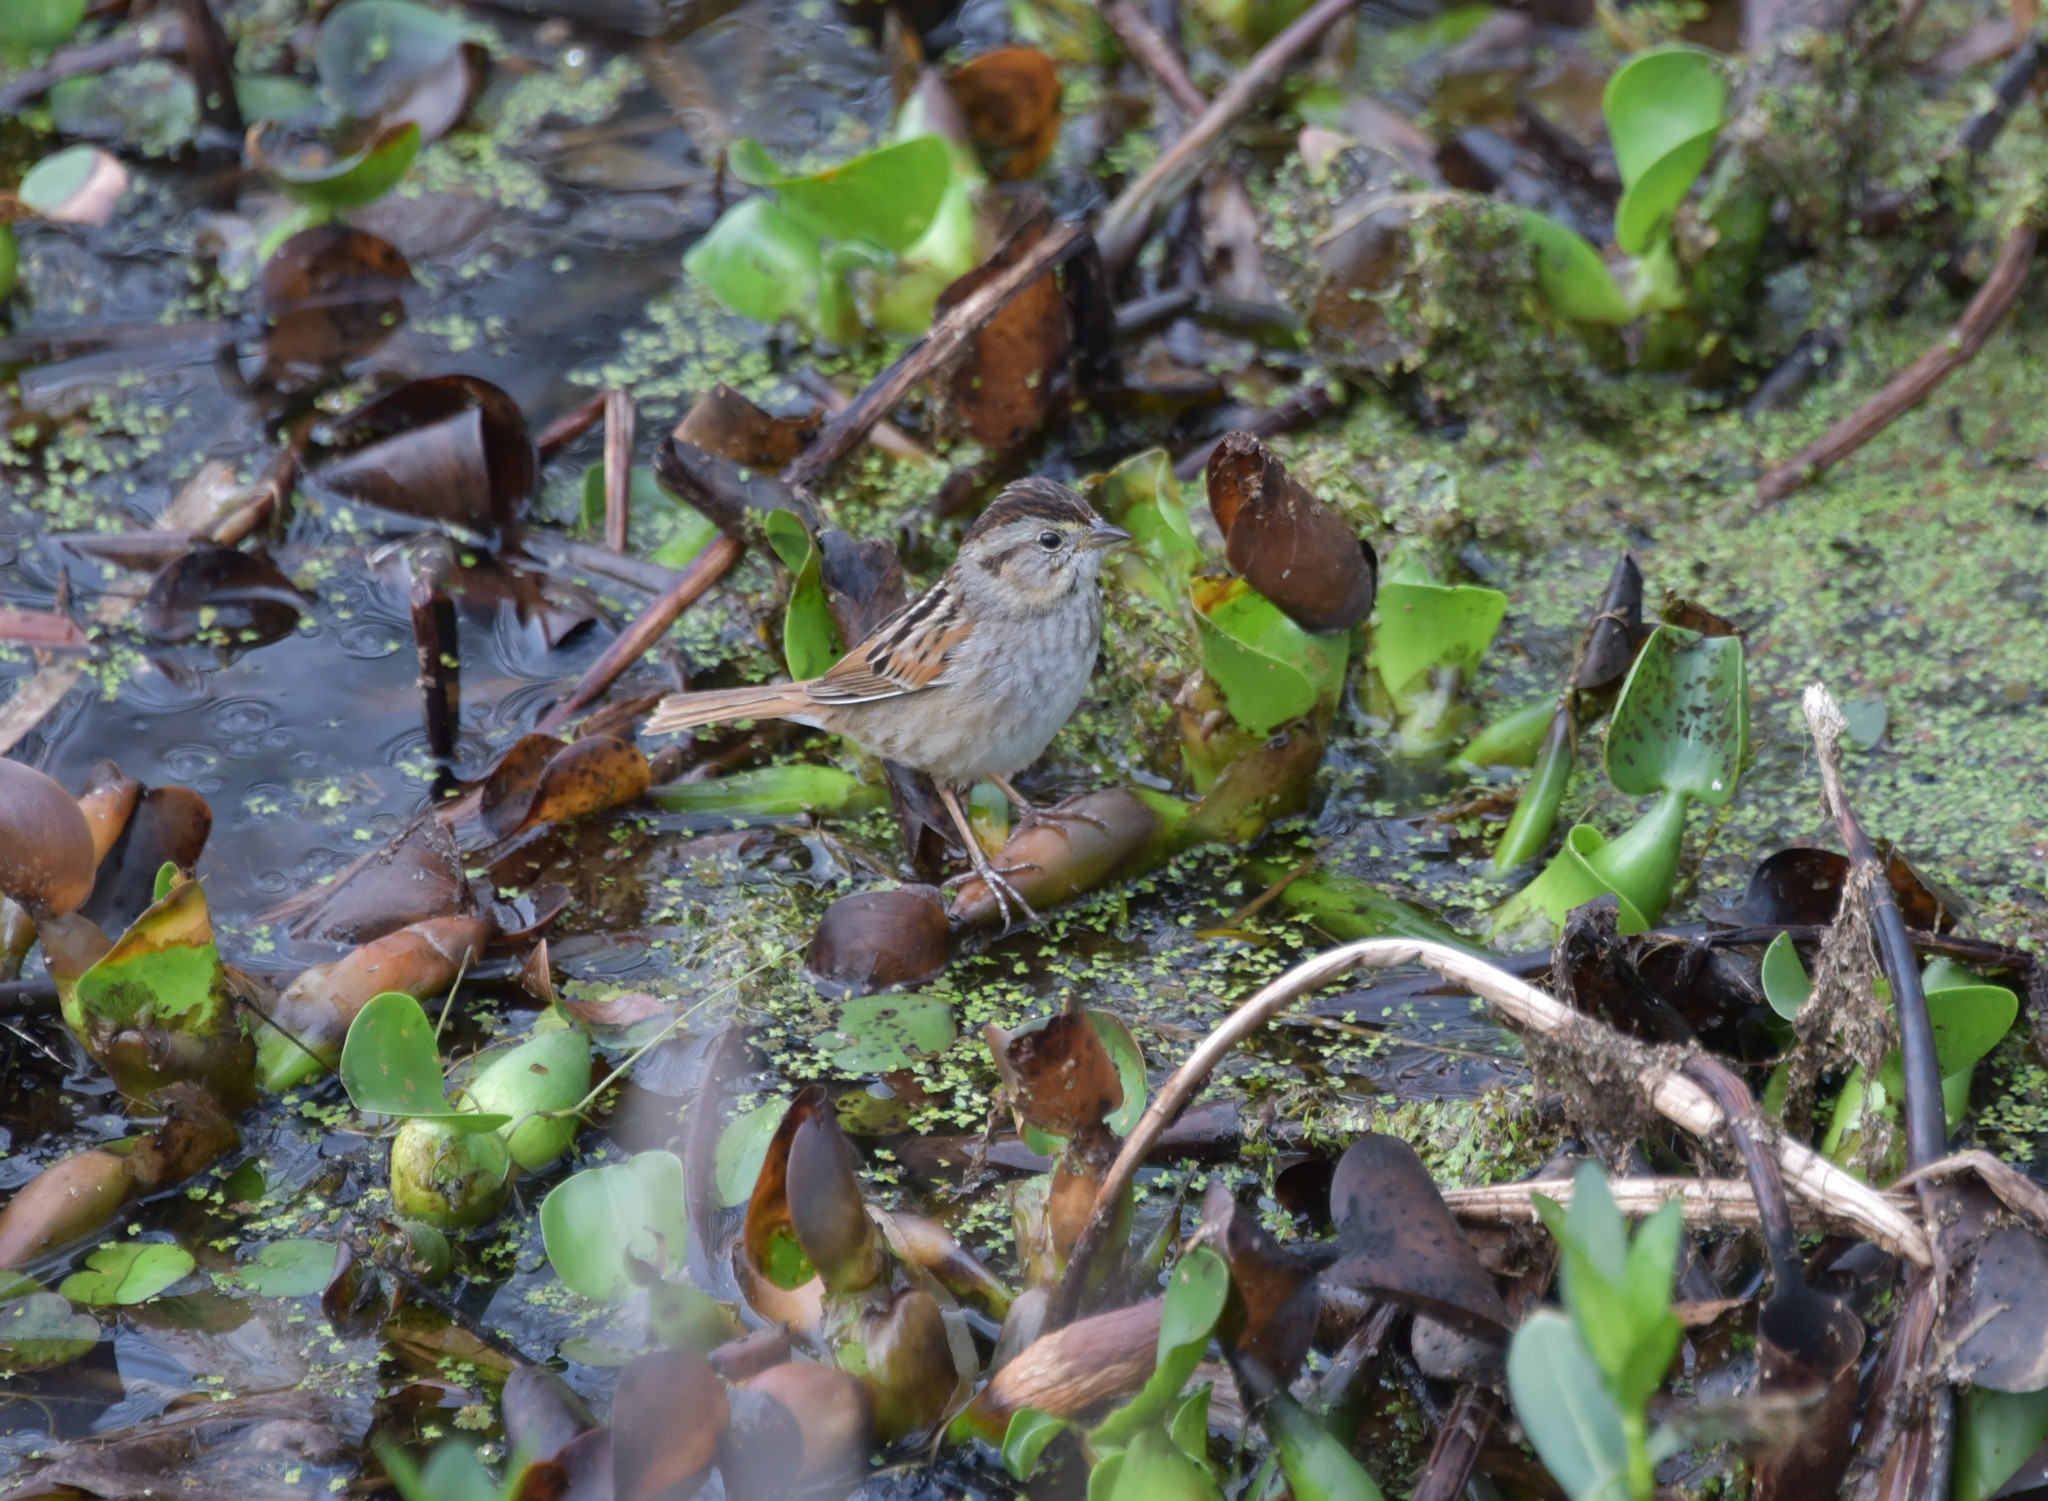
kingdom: Animalia
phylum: Chordata
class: Aves
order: Passeriformes
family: Passerellidae
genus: Melospiza
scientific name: Melospiza georgiana
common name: Swamp sparrow
